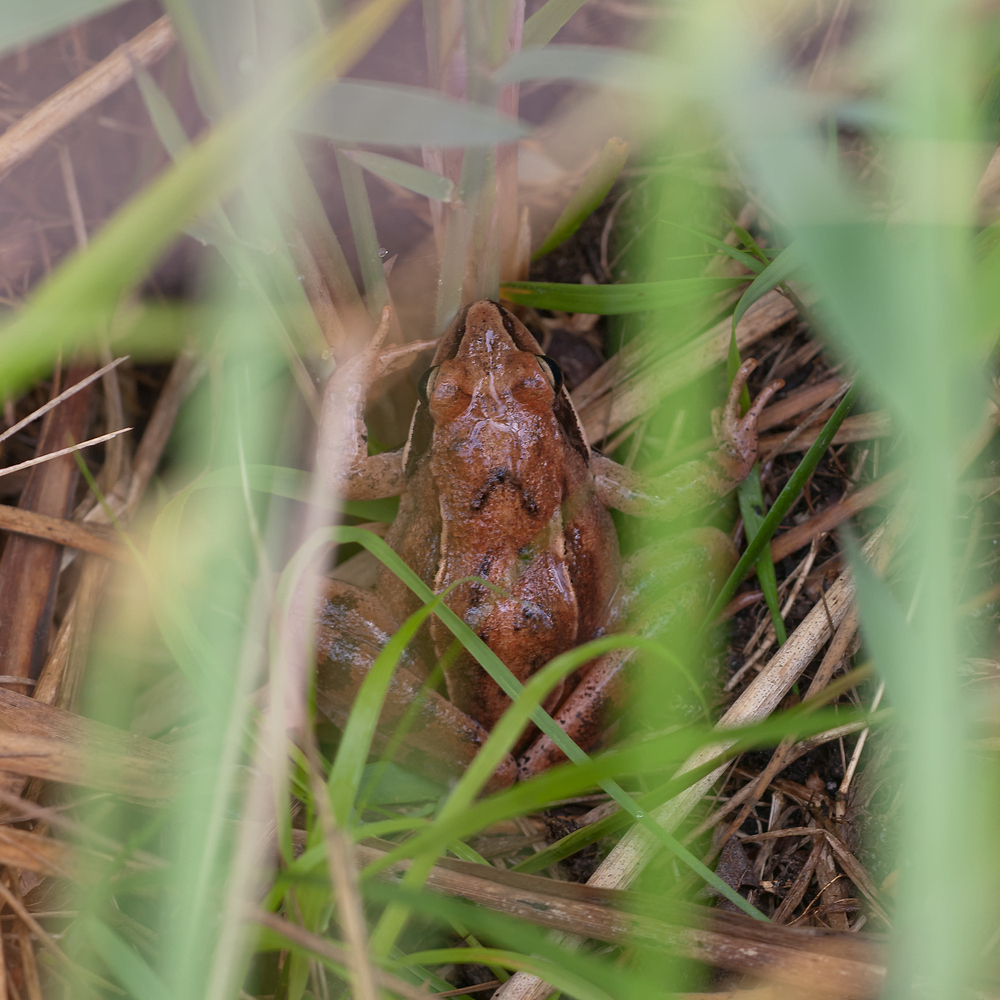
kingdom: Animalia
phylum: Chordata
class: Amphibia
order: Anura
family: Ranidae
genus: Rana
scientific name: Rana dalmatina
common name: Agile frog
